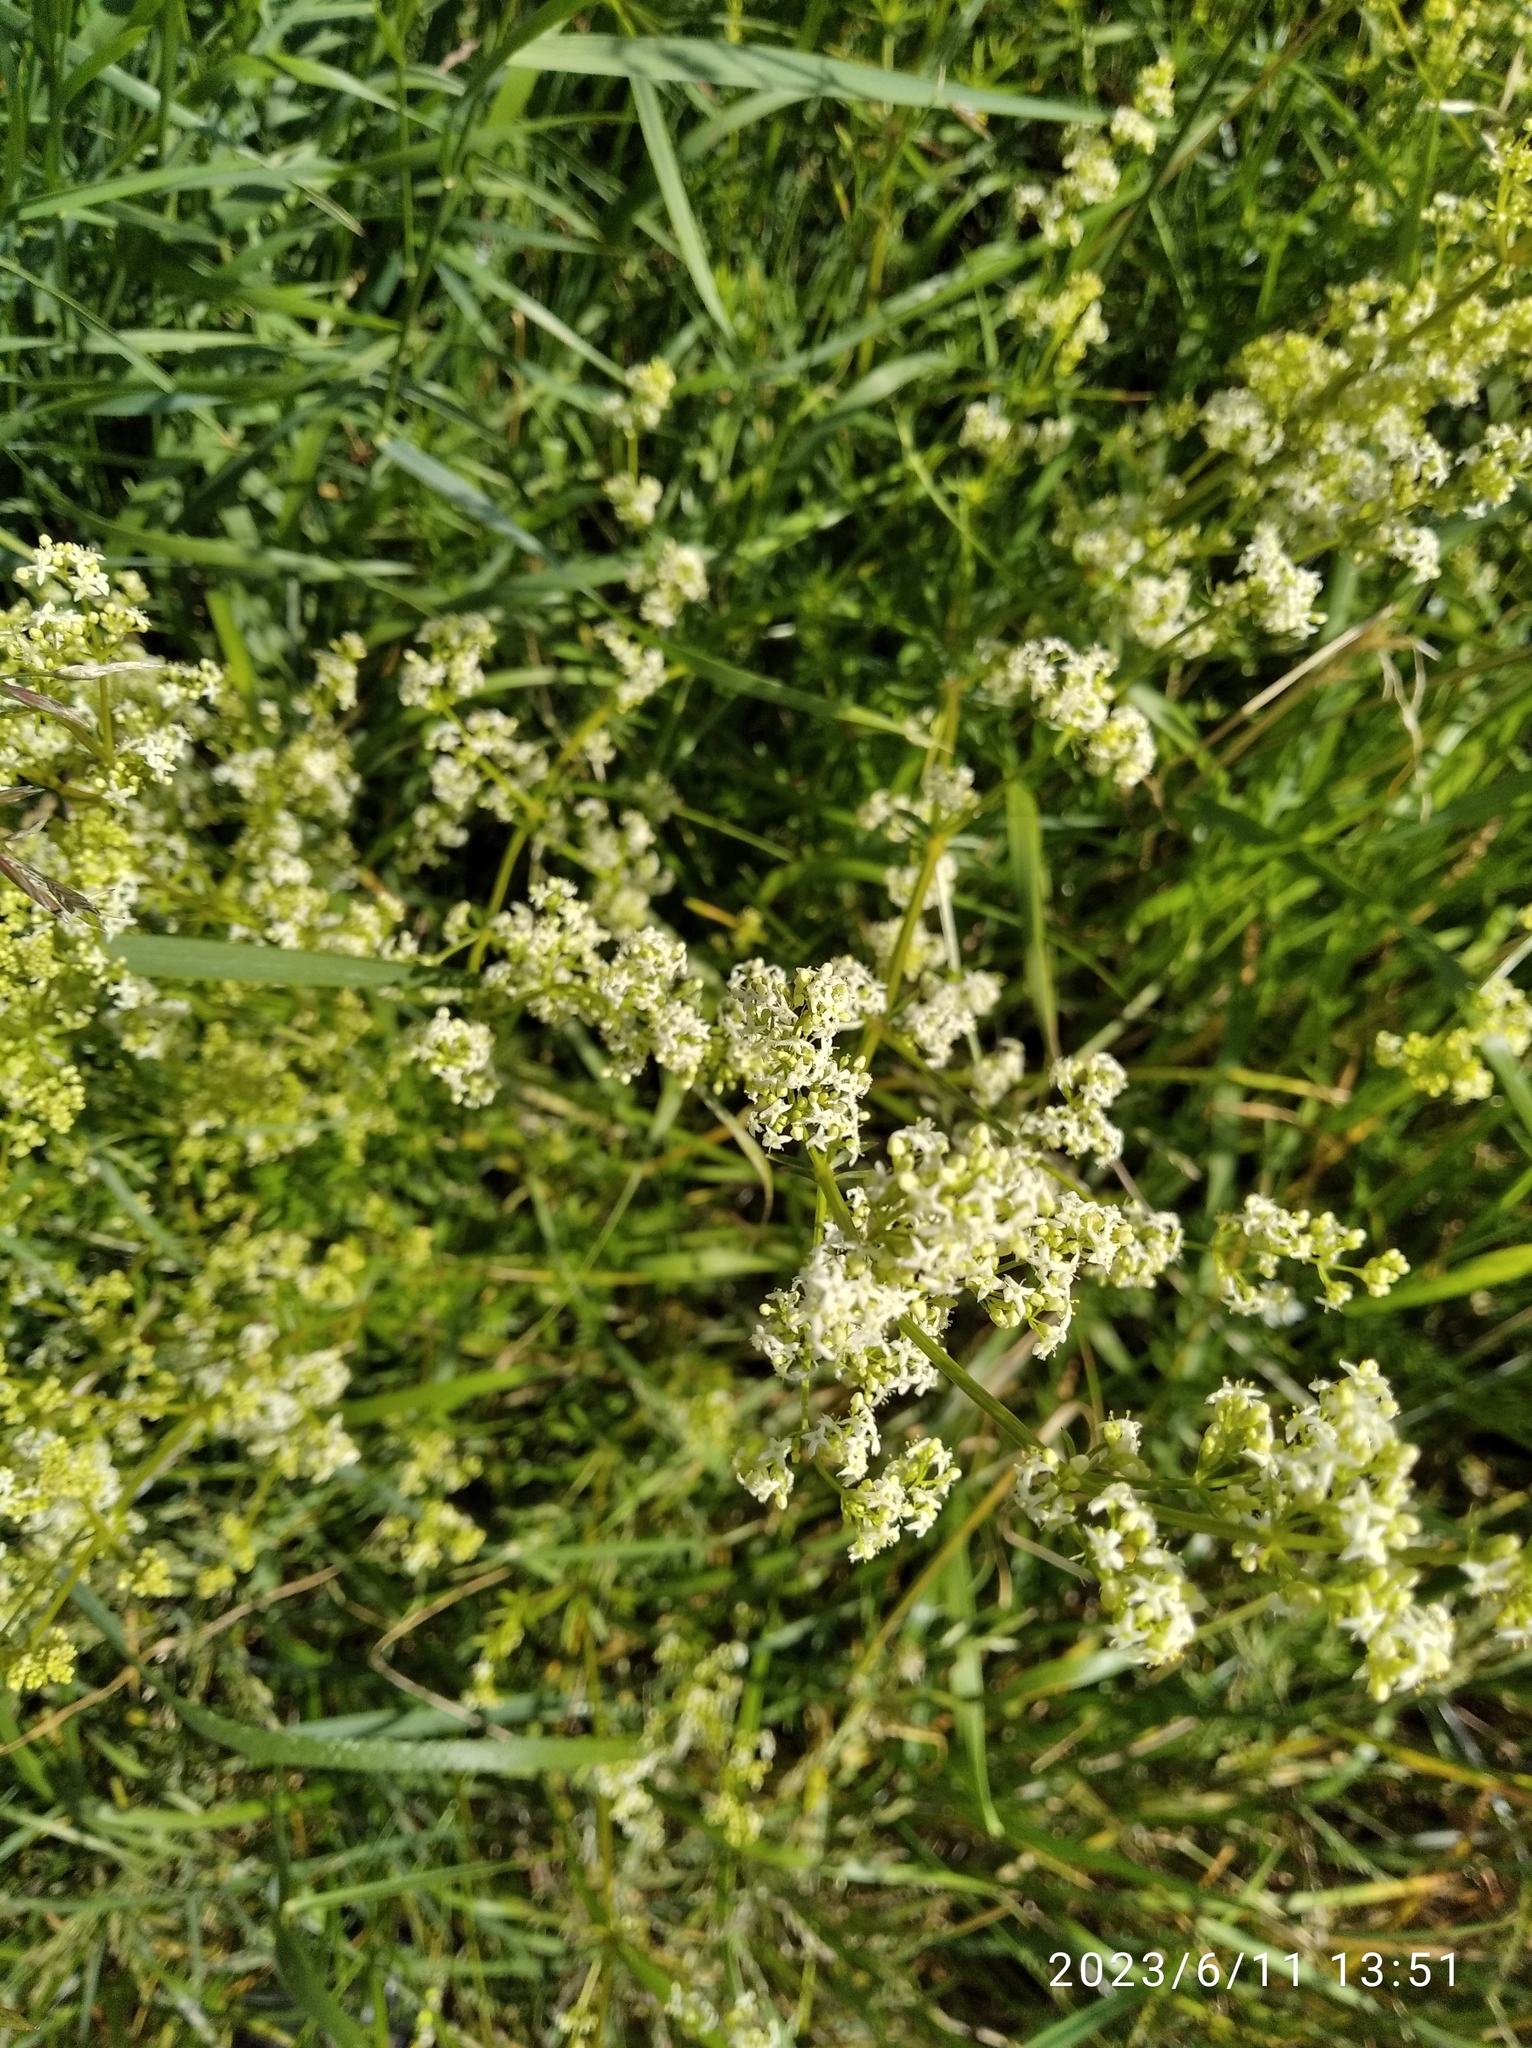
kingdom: Plantae
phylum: Tracheophyta
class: Magnoliopsida
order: Gentianales
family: Rubiaceae
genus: Galium
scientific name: Galium mollugo
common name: Hedge bedstraw
